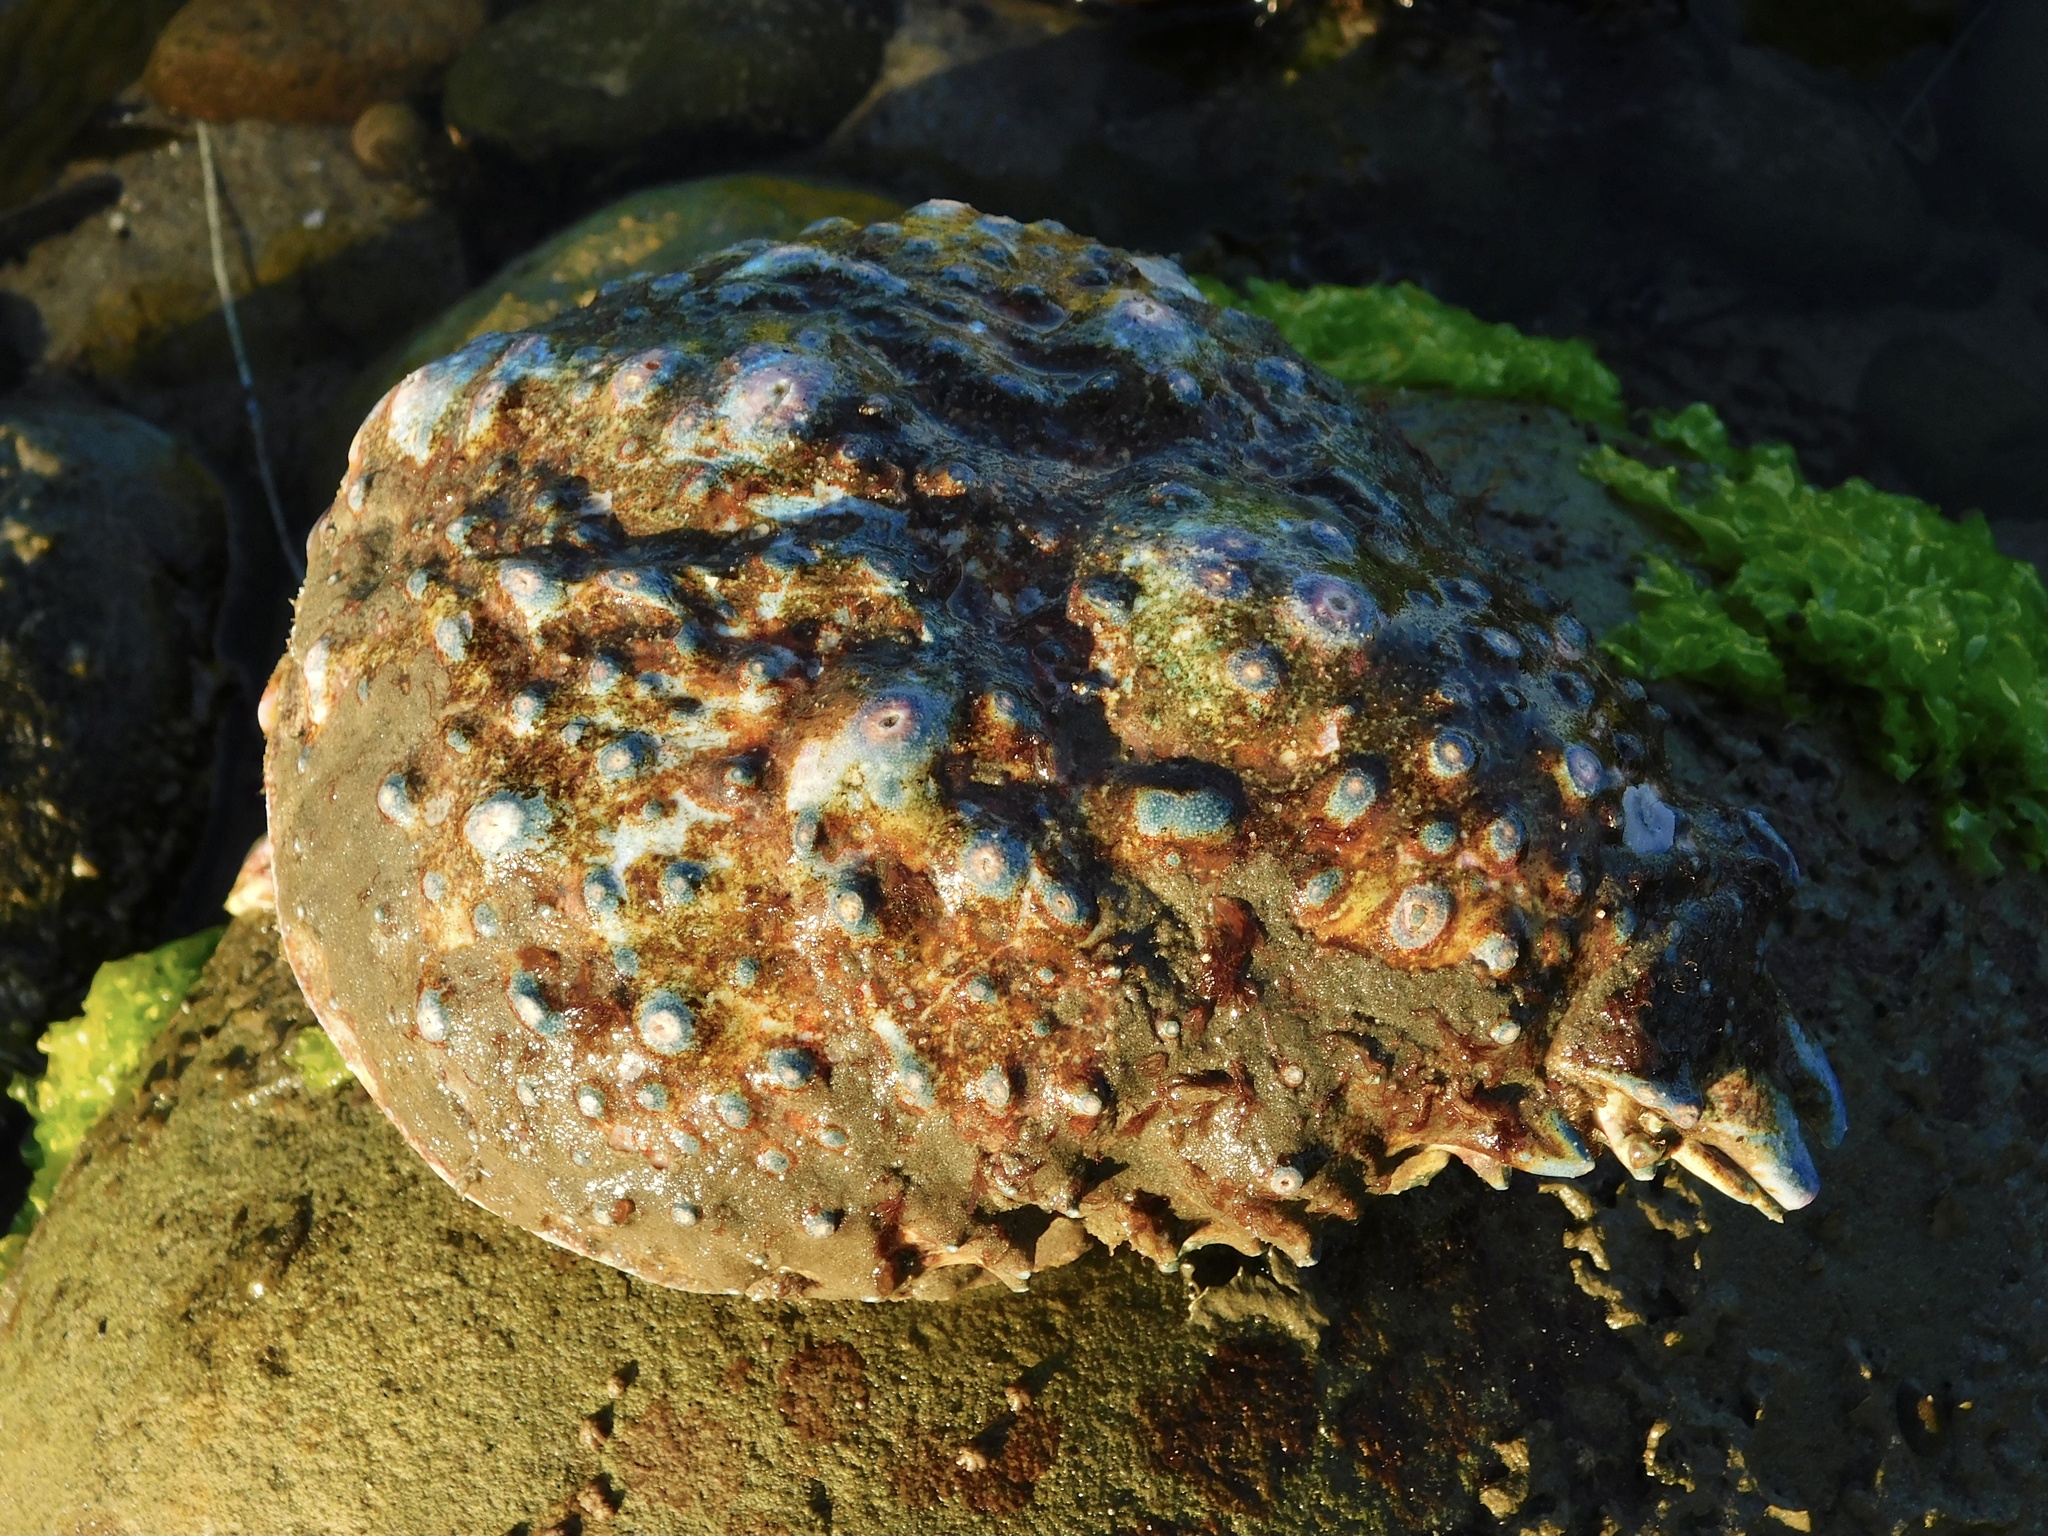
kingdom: Animalia
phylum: Arthropoda
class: Malacostraca
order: Decapoda
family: Epialtidae
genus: Loxorhynchus
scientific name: Loxorhynchus grandis
